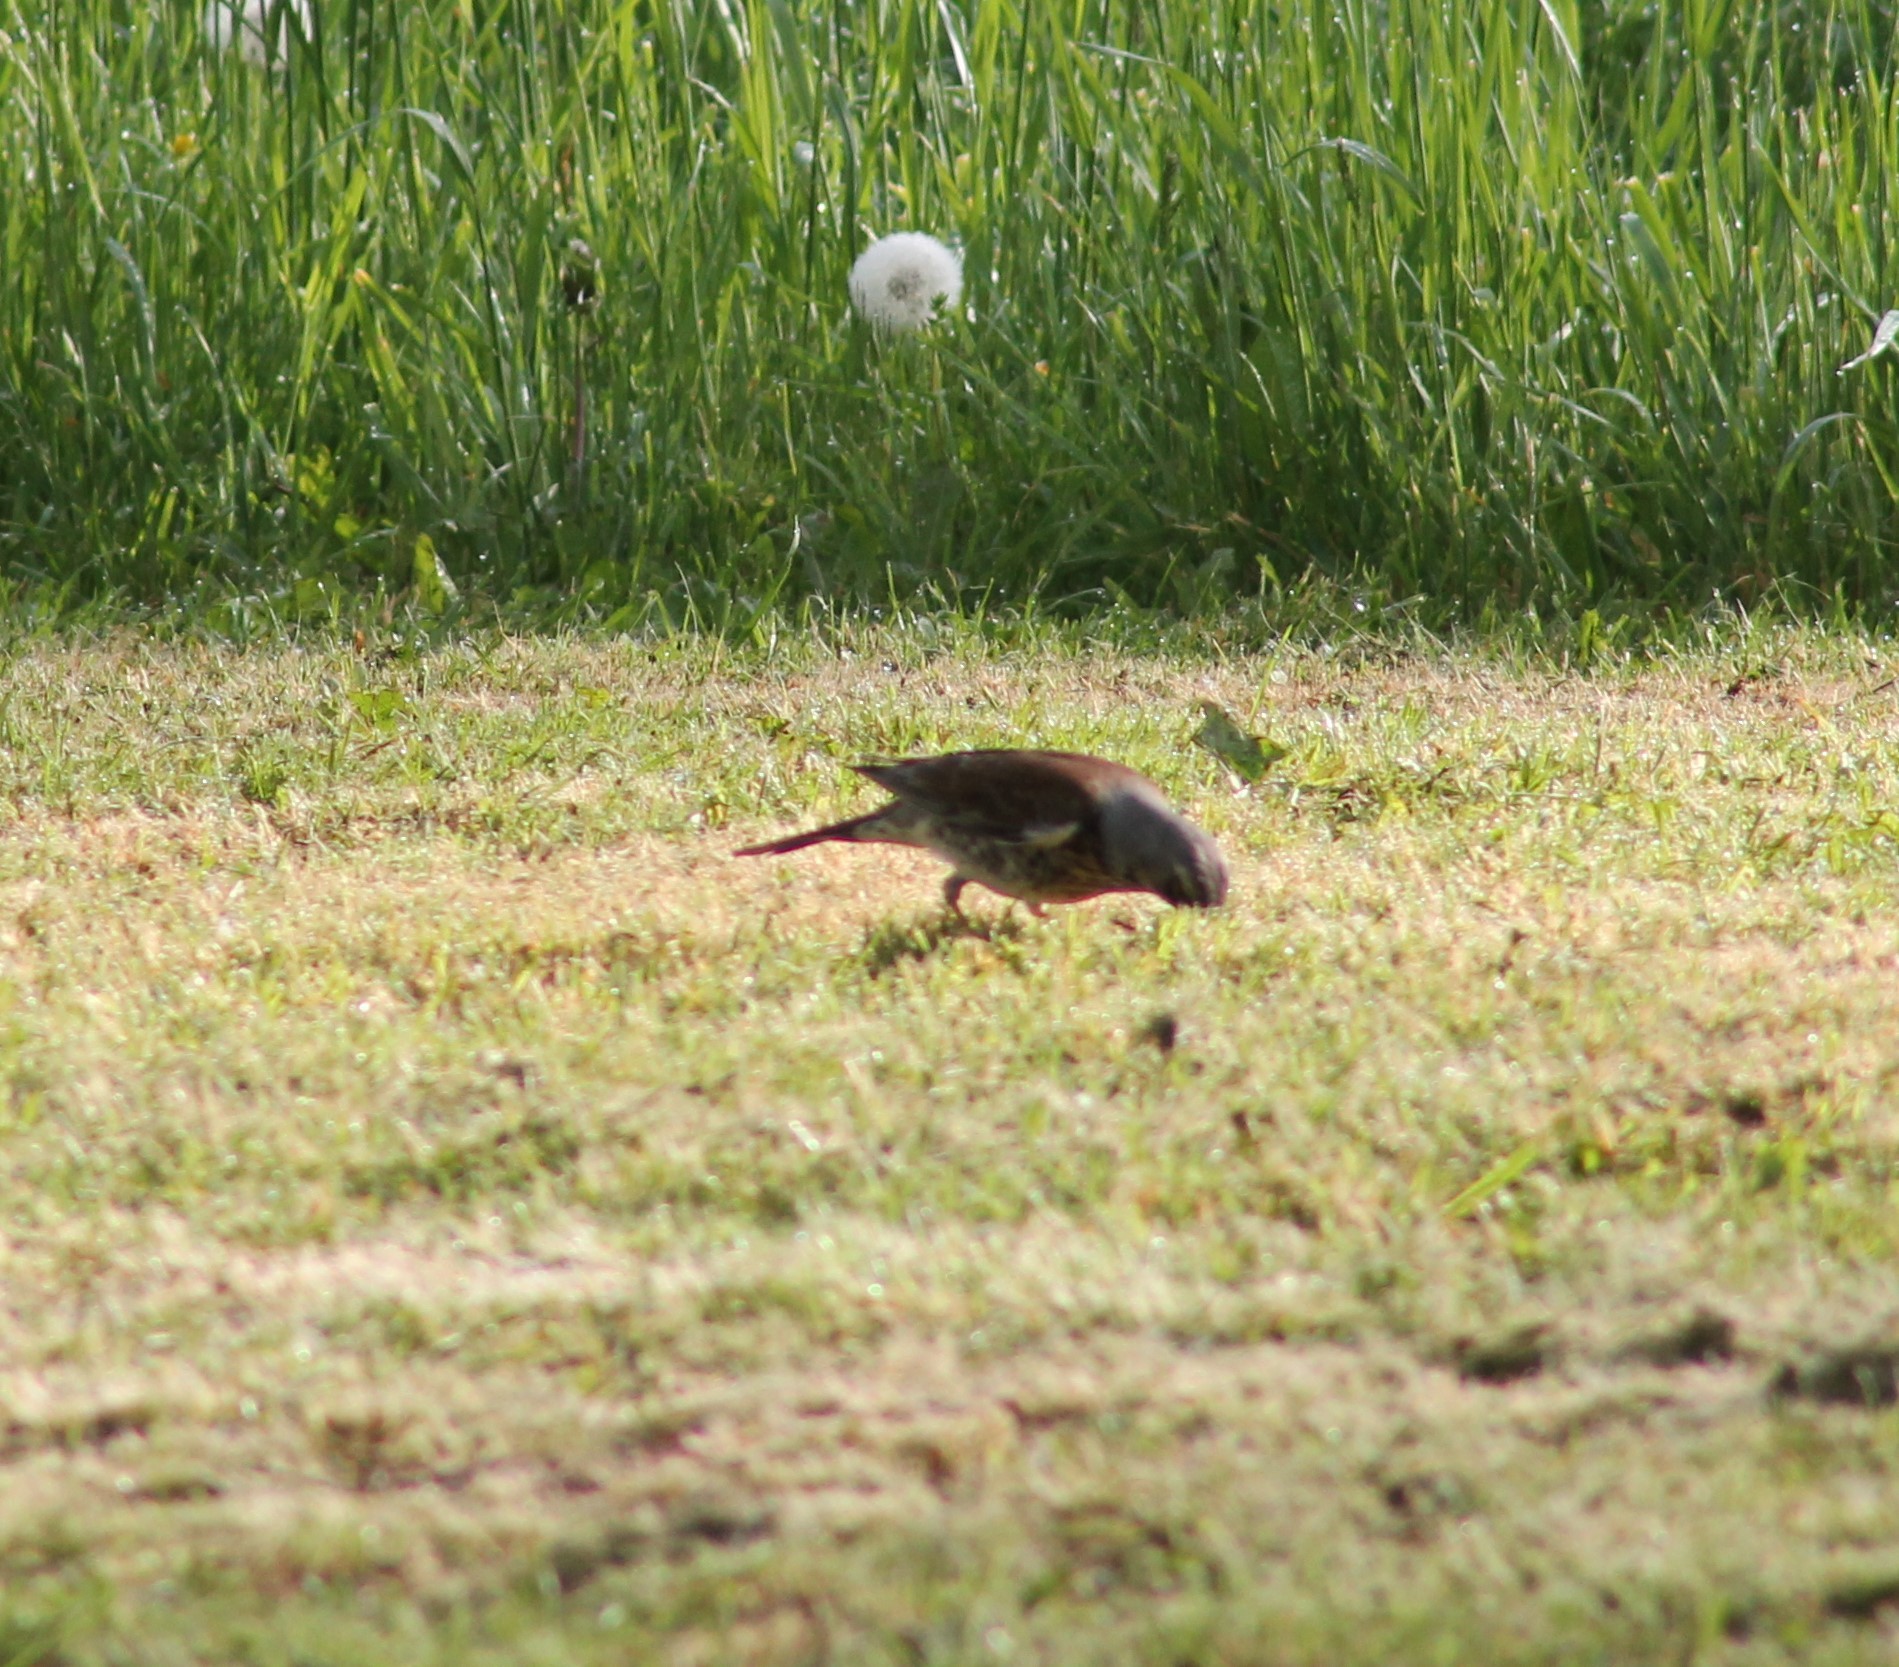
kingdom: Animalia
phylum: Chordata
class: Aves
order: Passeriformes
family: Turdidae
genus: Turdus
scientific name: Turdus pilaris
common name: Fieldfare
